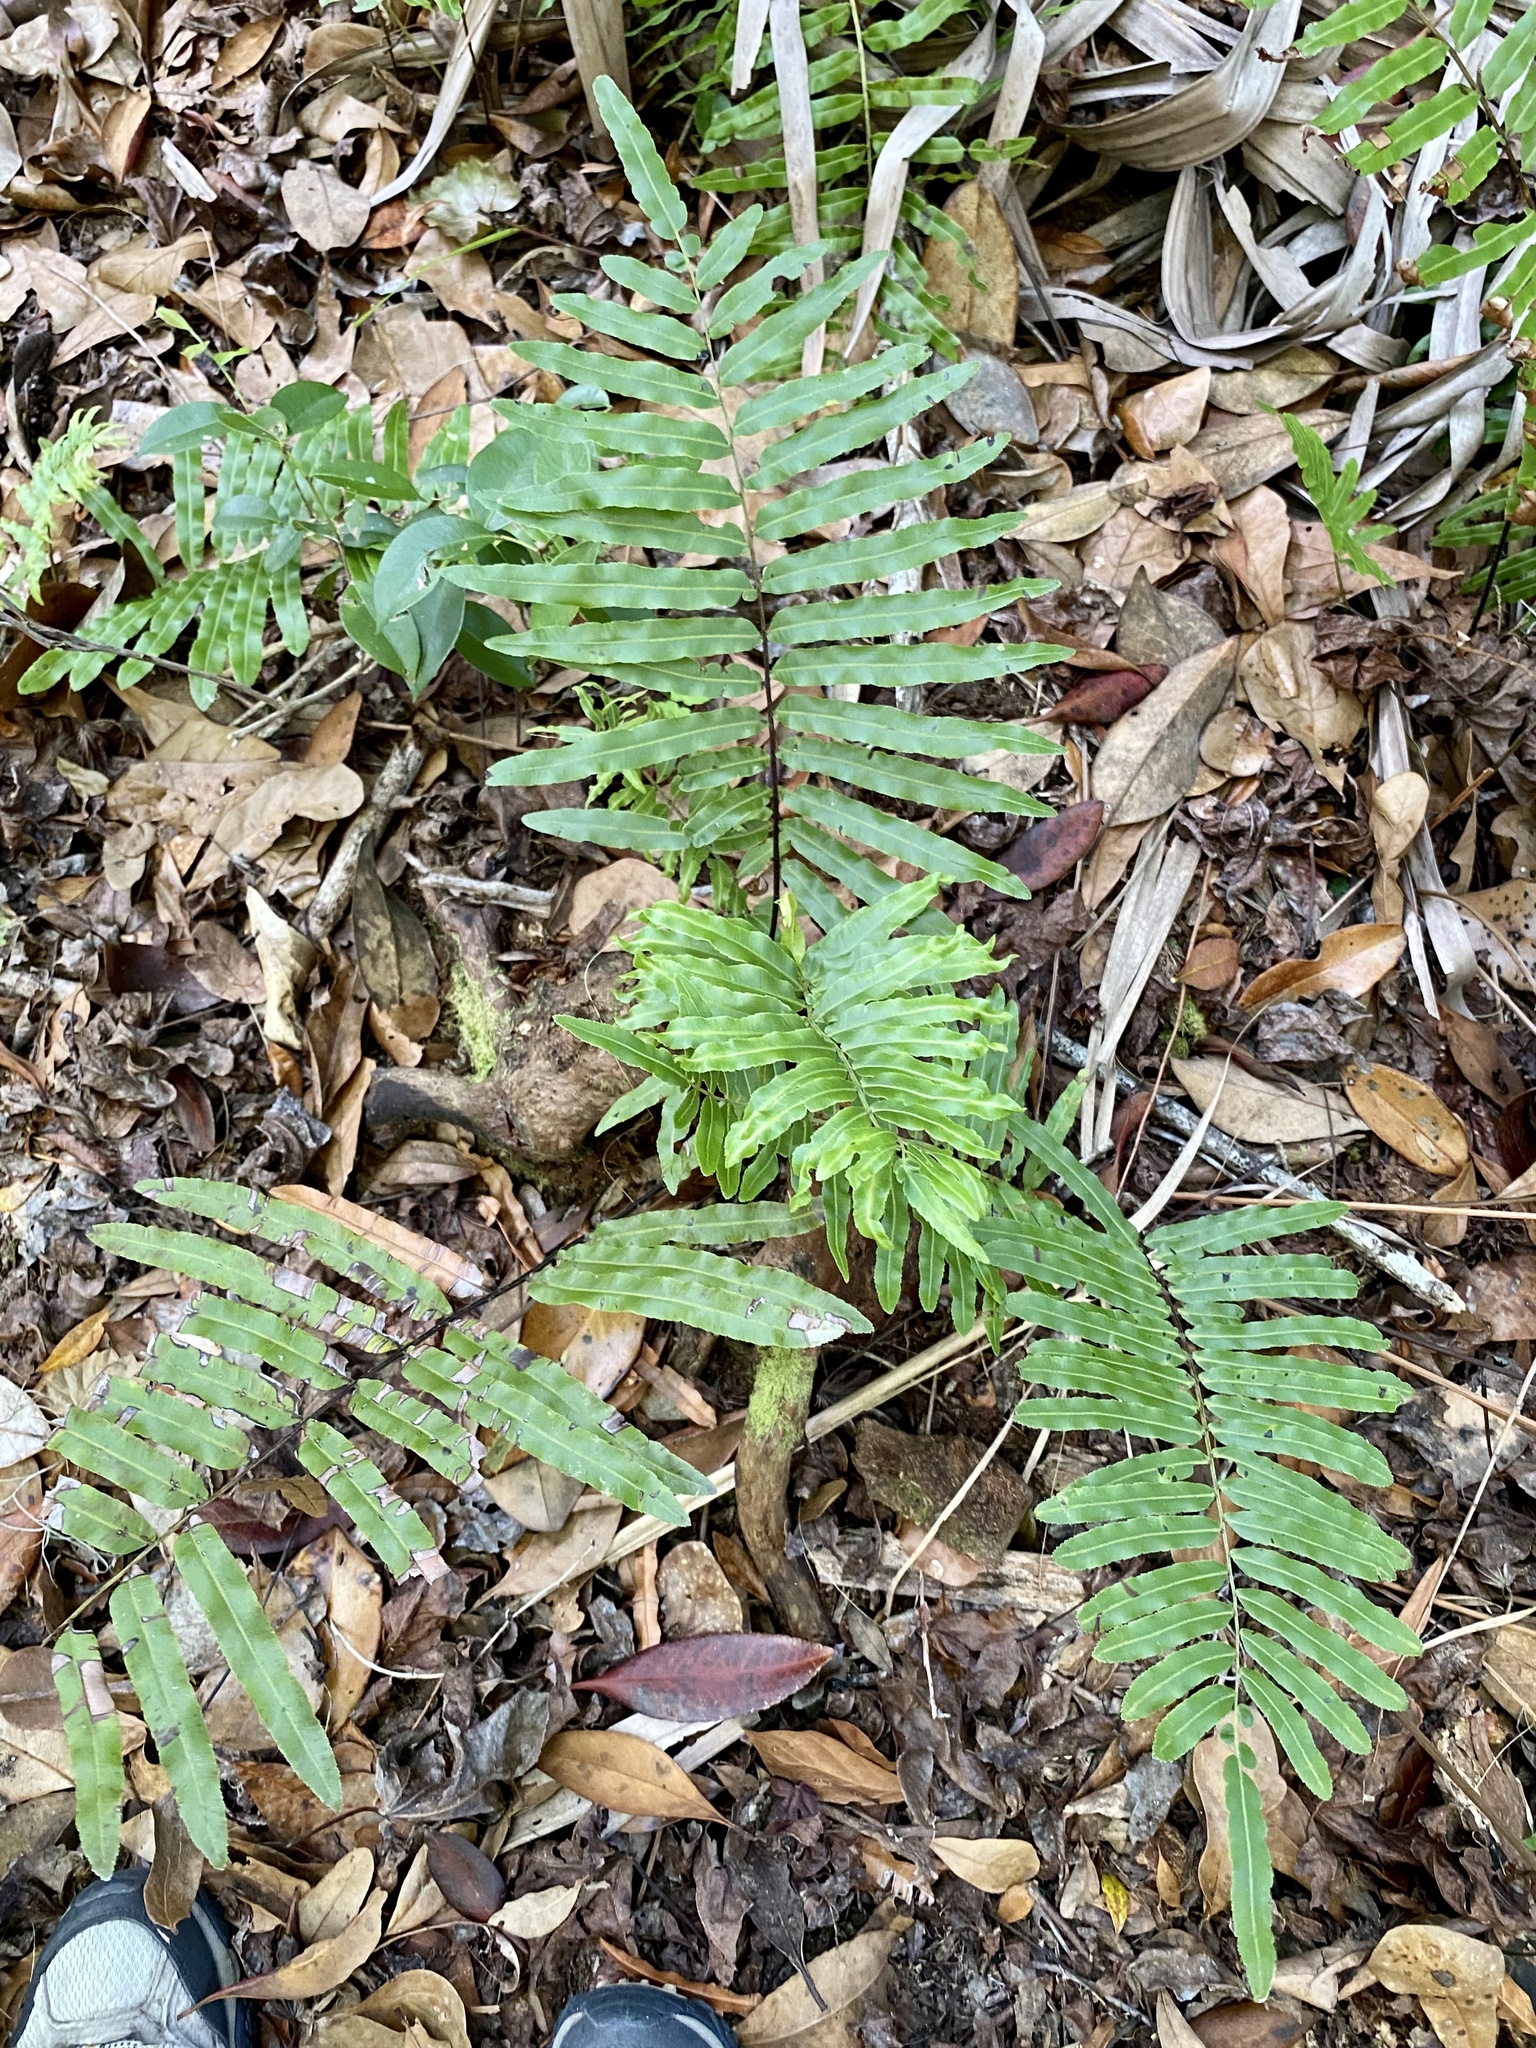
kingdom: Plantae
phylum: Tracheophyta
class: Polypodiopsida
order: Polypodiales
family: Blechnaceae
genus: Telmatoblechnum
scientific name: Telmatoblechnum serrulatum
